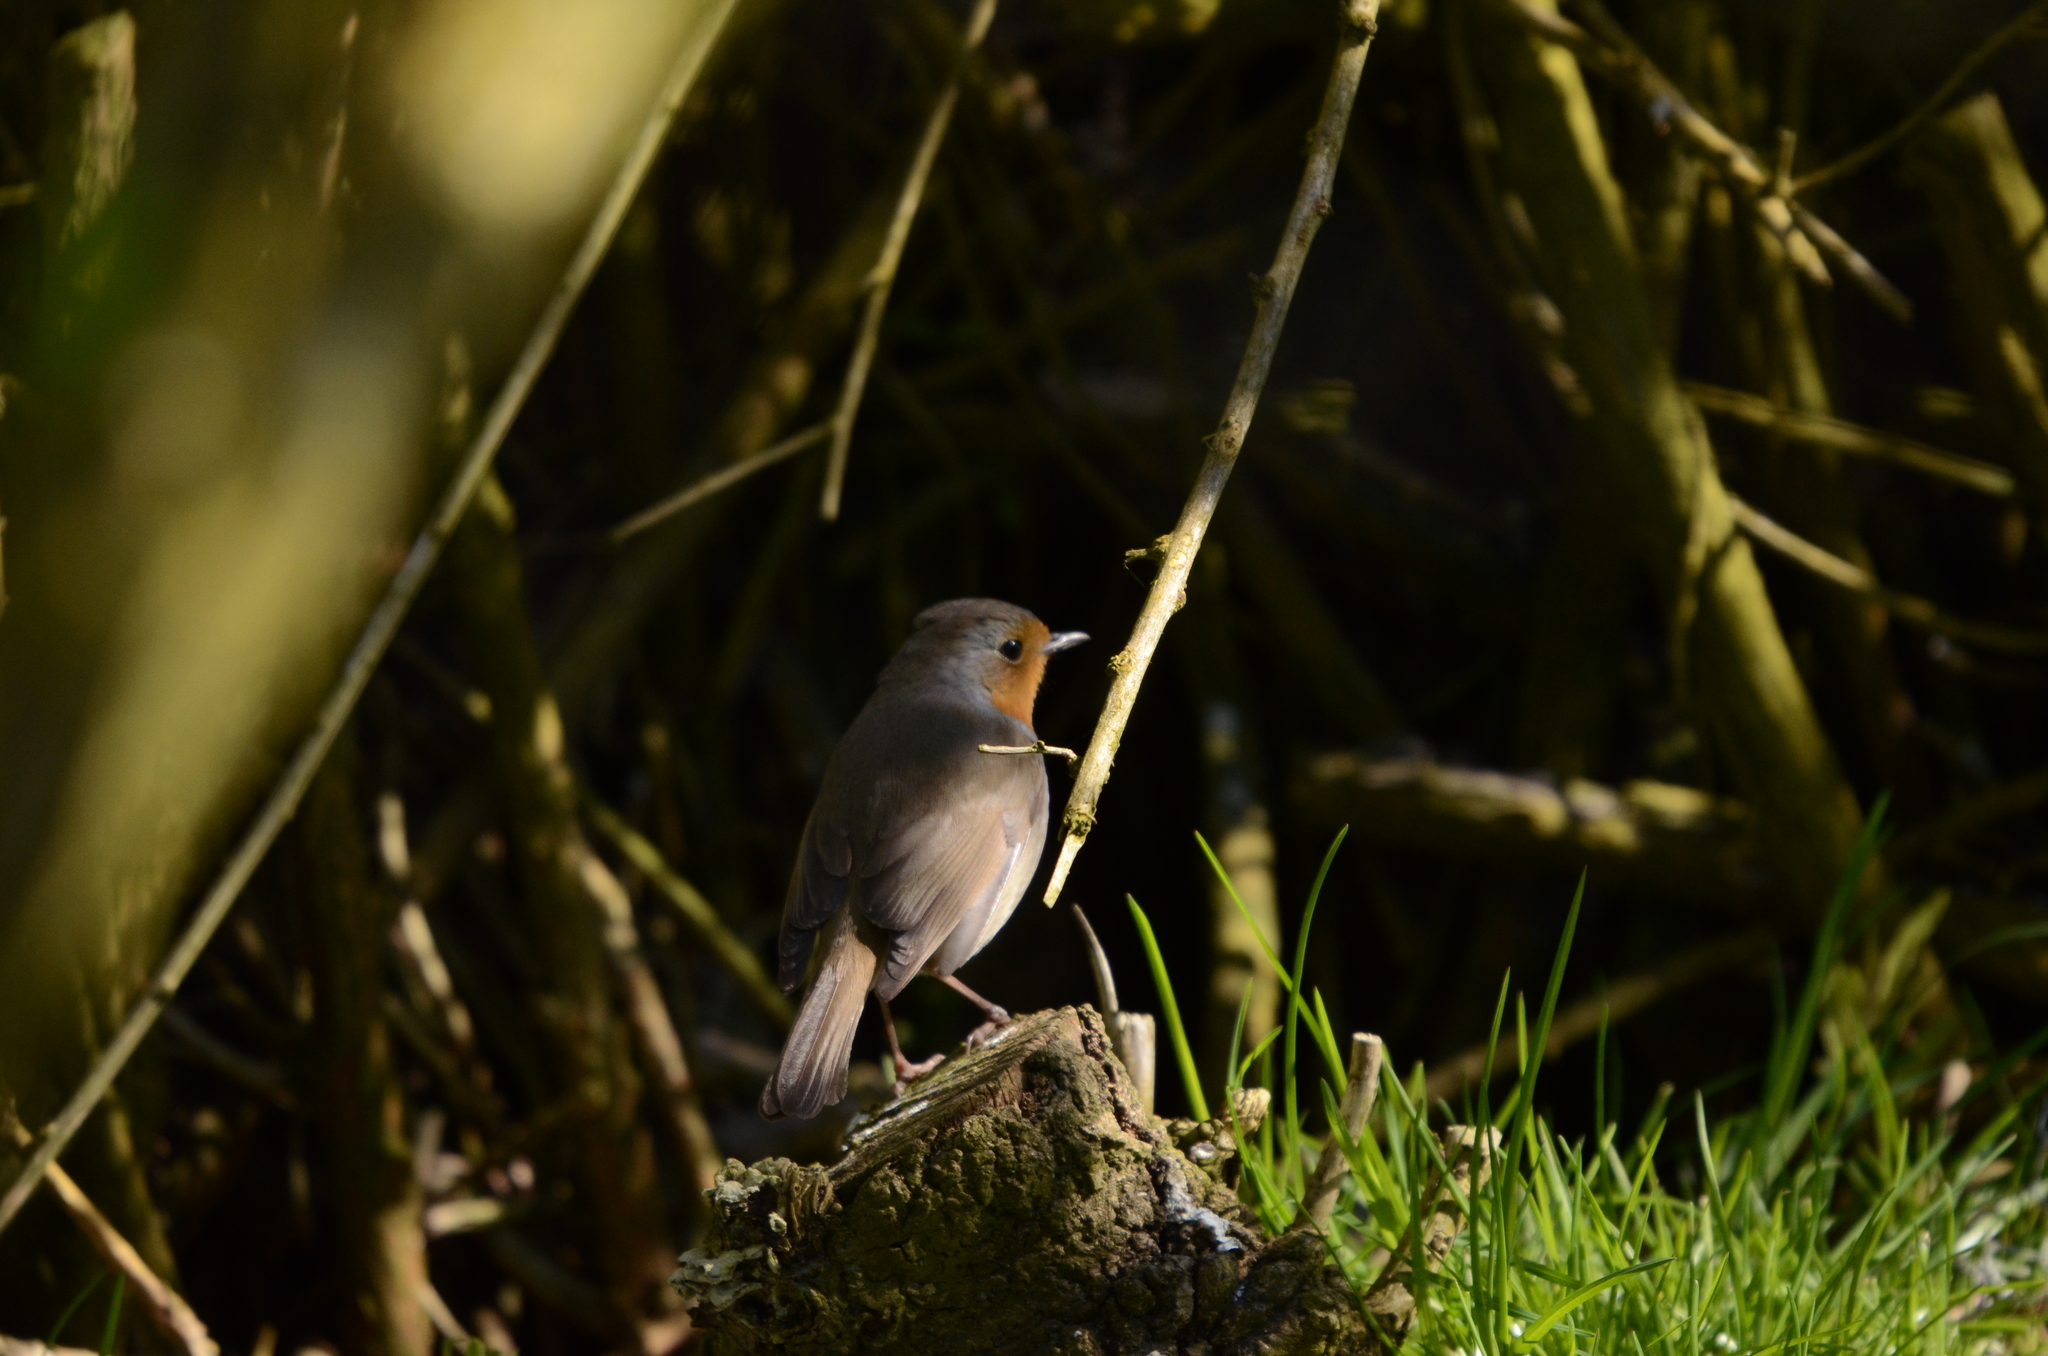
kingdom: Animalia
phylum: Chordata
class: Aves
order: Passeriformes
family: Muscicapidae
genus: Erithacus
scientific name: Erithacus rubecula
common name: European robin
